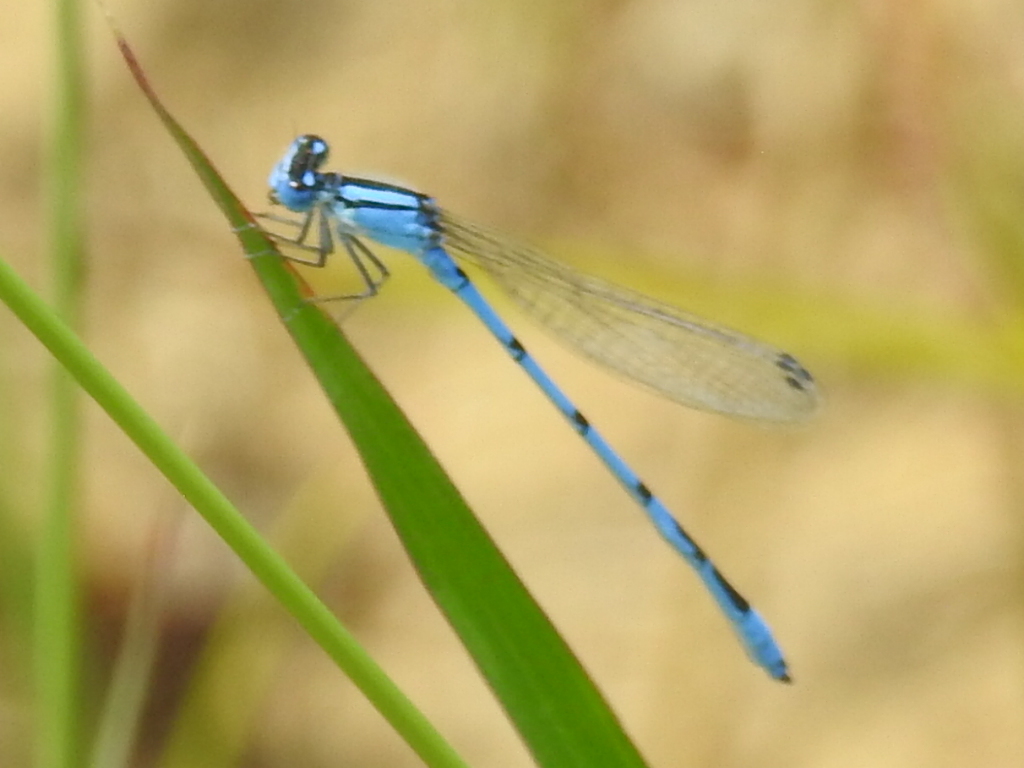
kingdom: Animalia
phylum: Arthropoda
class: Insecta
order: Odonata
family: Coenagrionidae
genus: Enallagma
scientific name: Enallagma civile
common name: Damselfly
